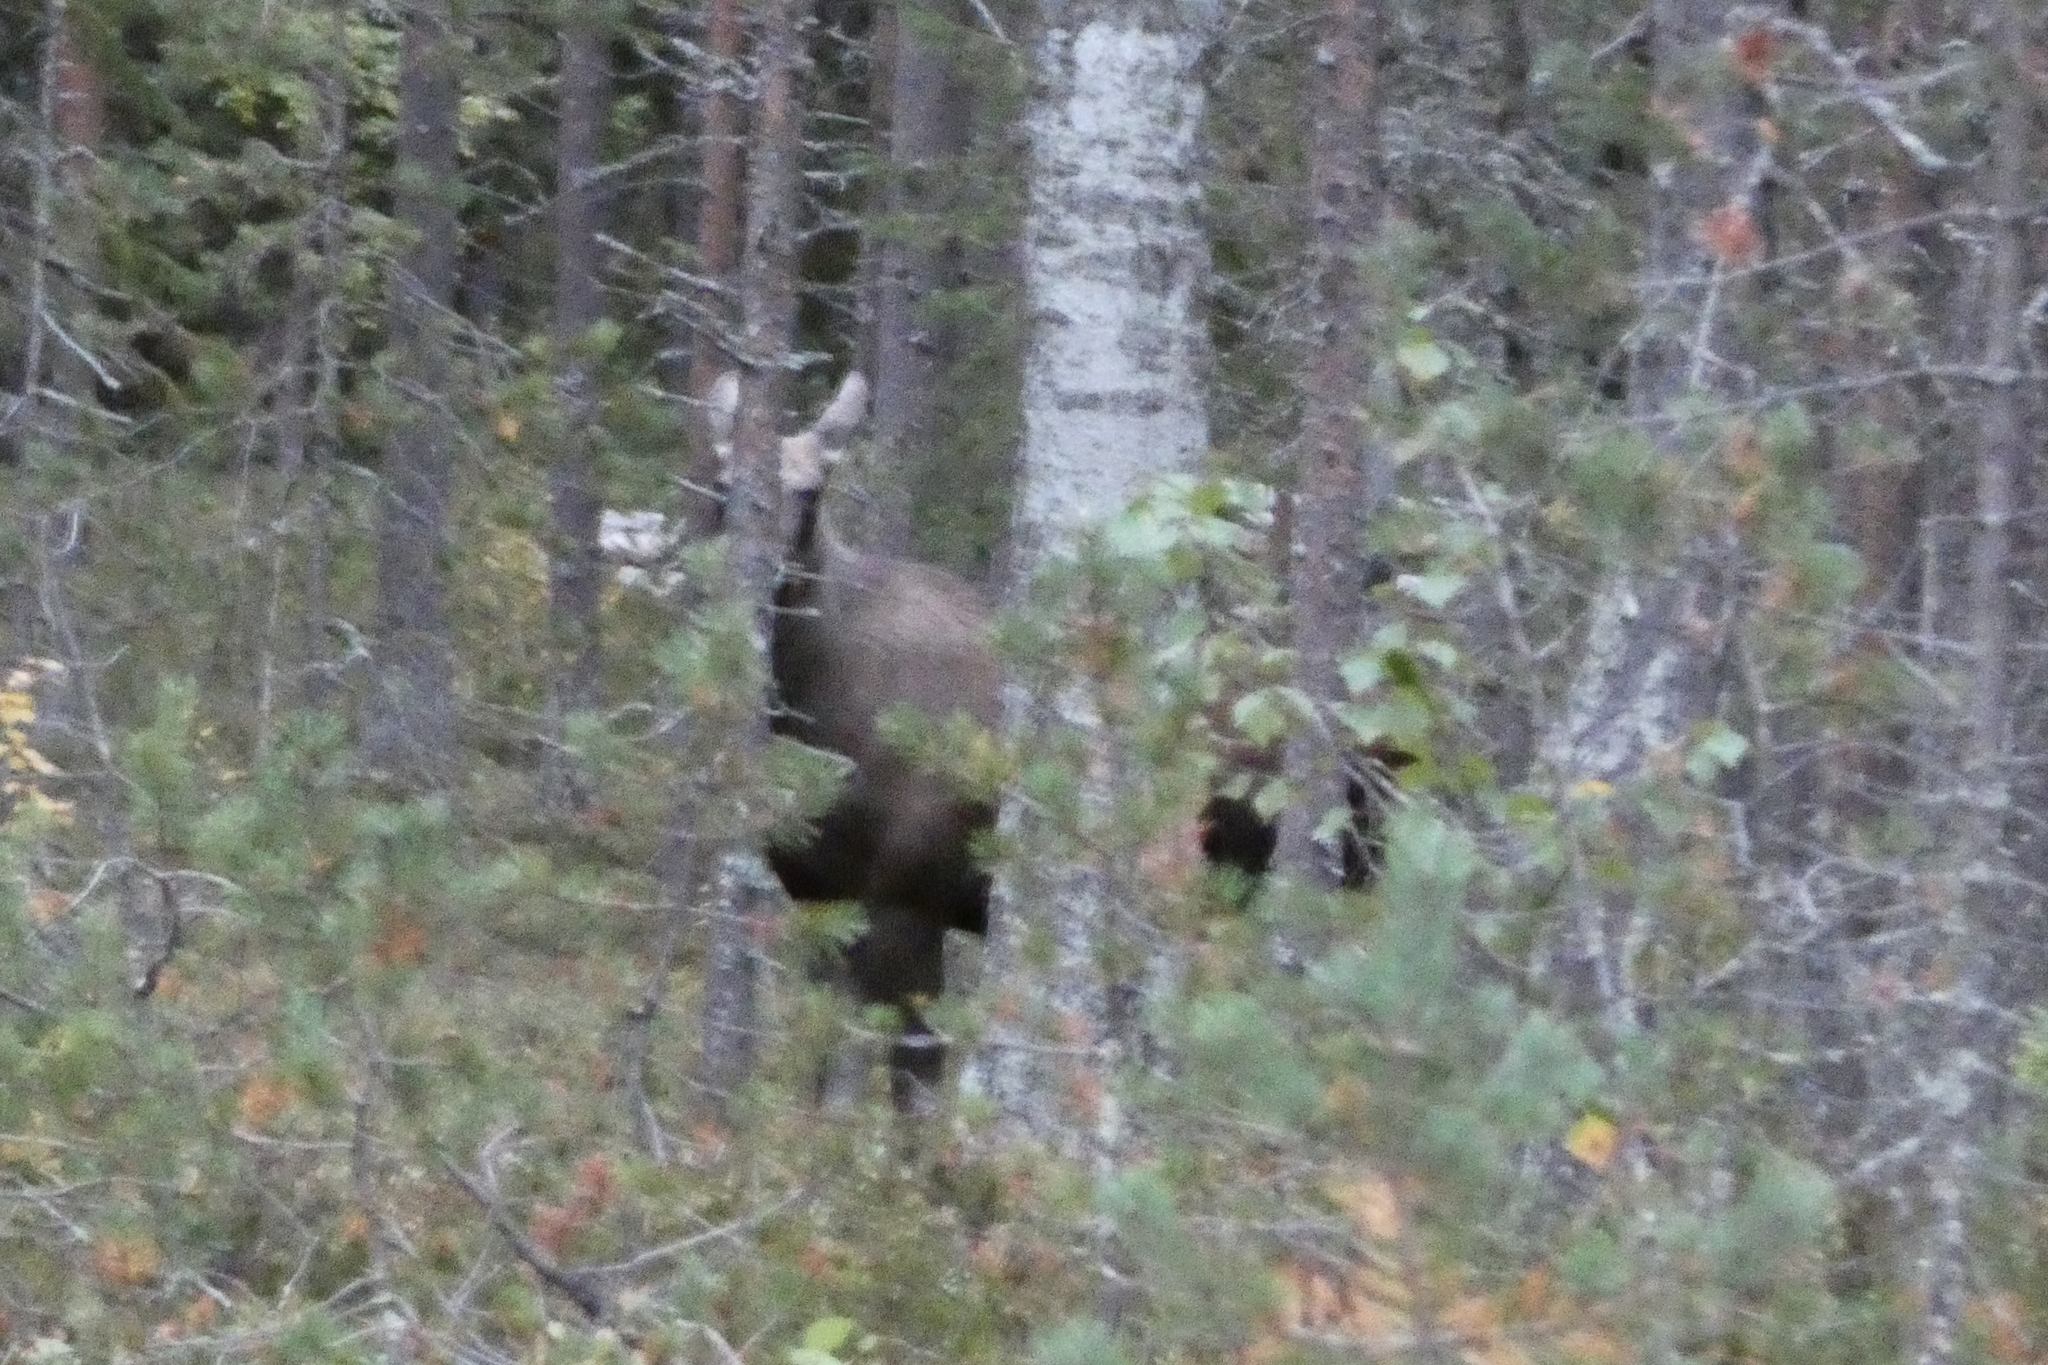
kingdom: Animalia
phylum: Chordata
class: Mammalia
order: Artiodactyla
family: Cervidae
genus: Alces
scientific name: Alces alces
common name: Moose
